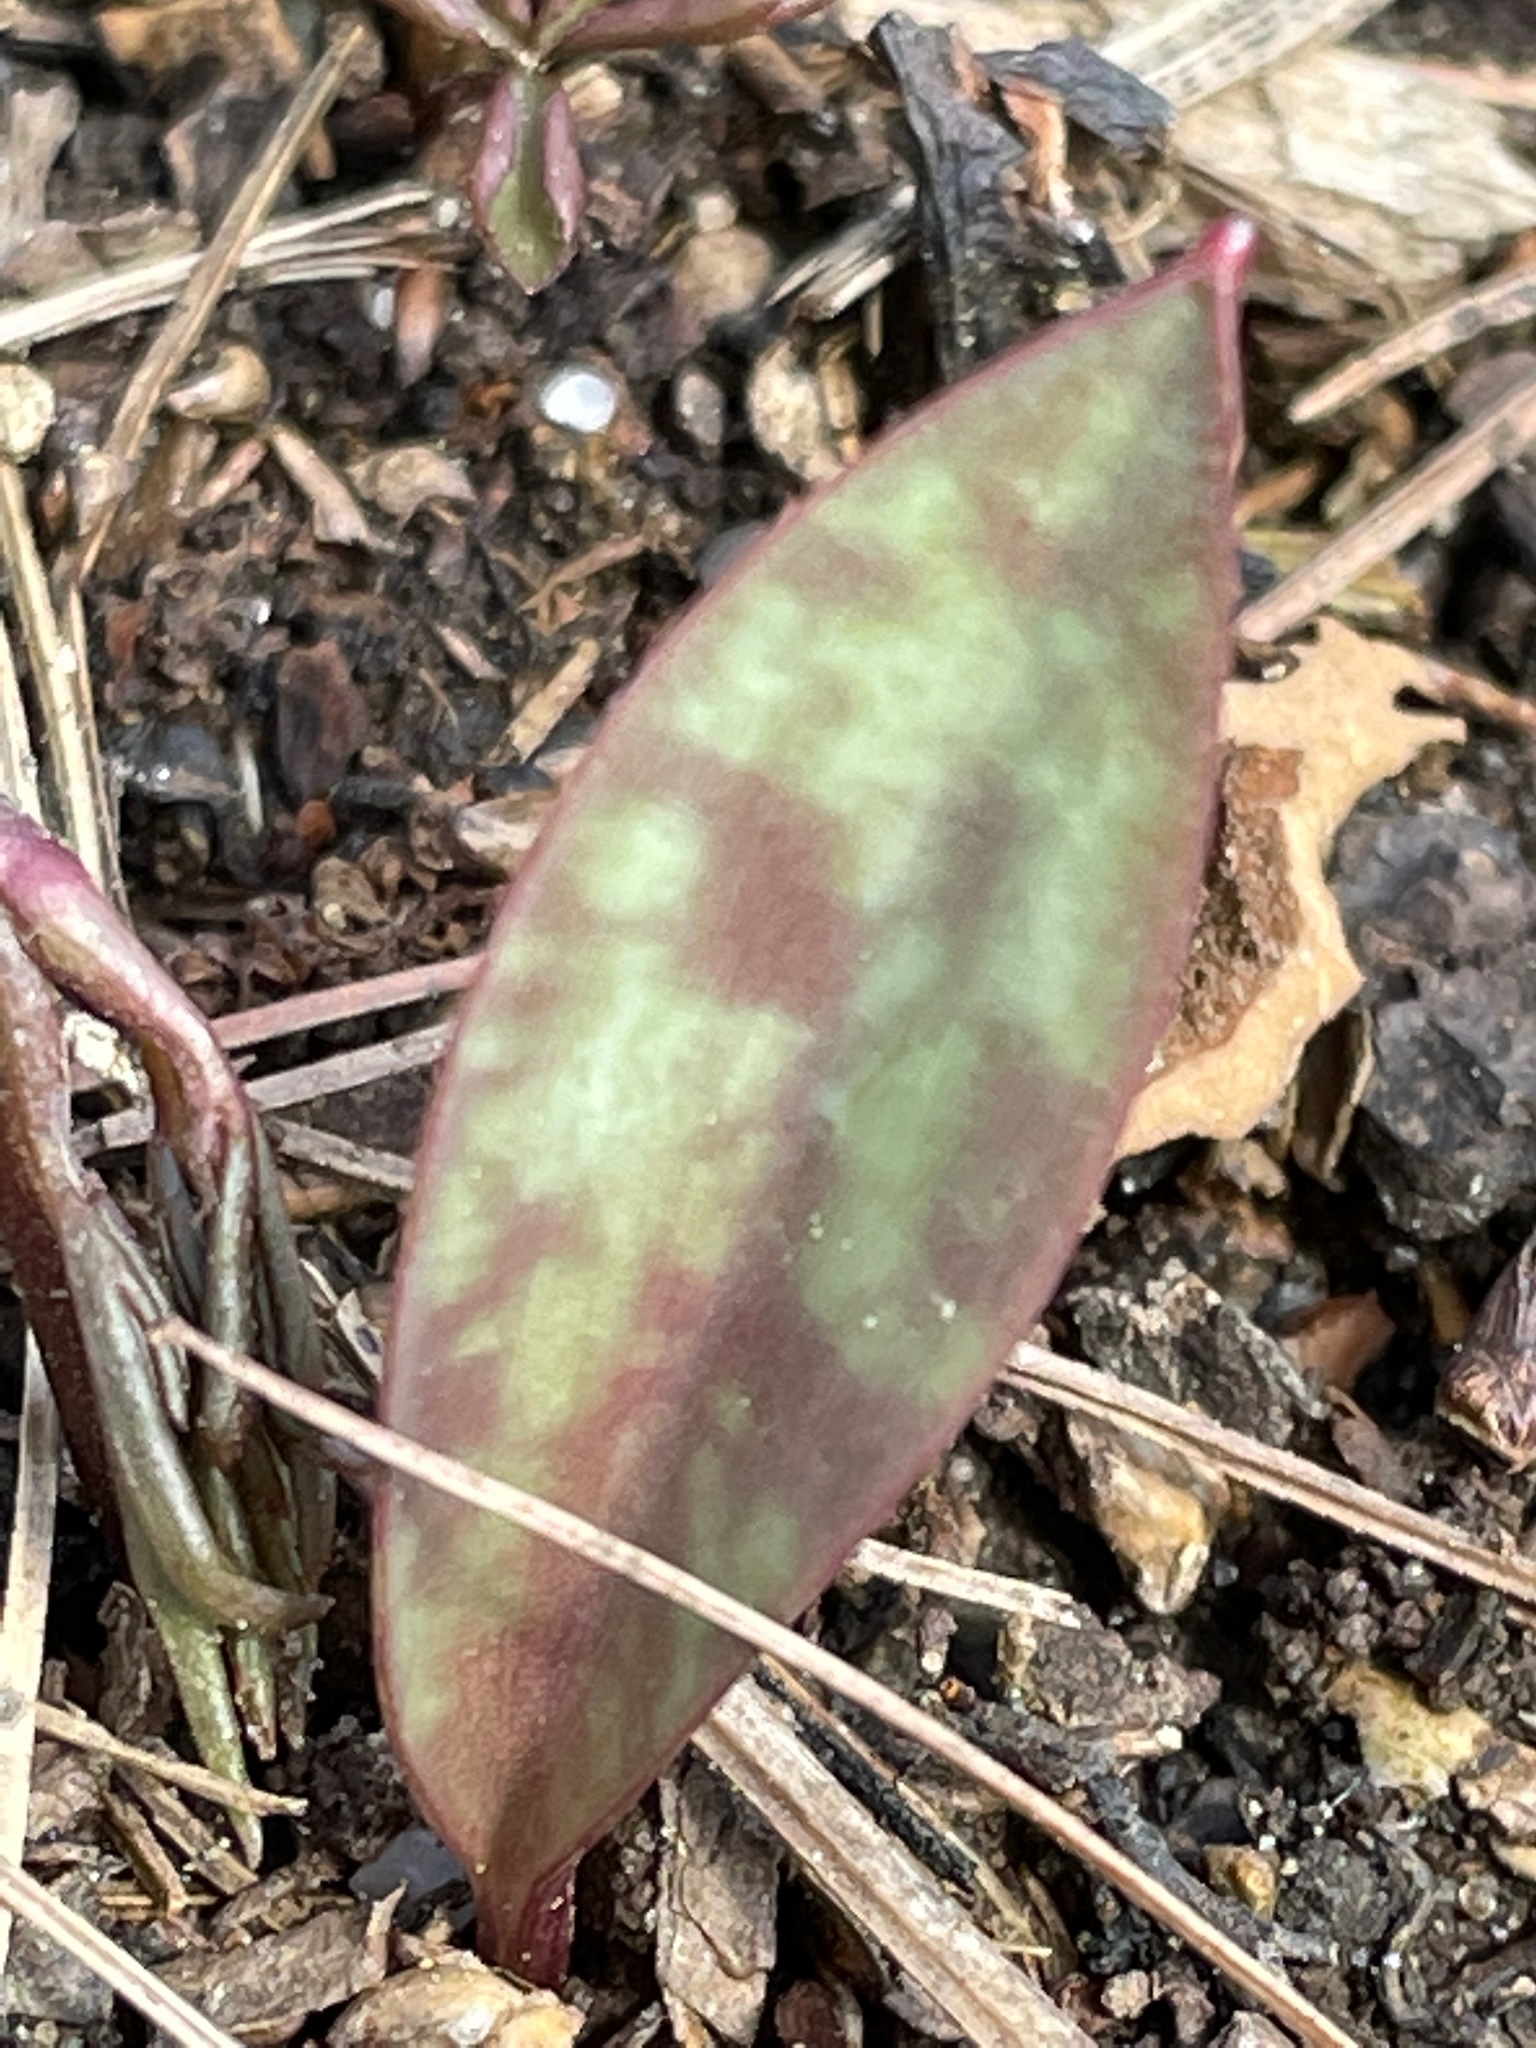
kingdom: Plantae
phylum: Tracheophyta
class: Liliopsida
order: Liliales
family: Liliaceae
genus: Erythronium
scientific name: Erythronium americanum
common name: Yellow adder's-tongue
